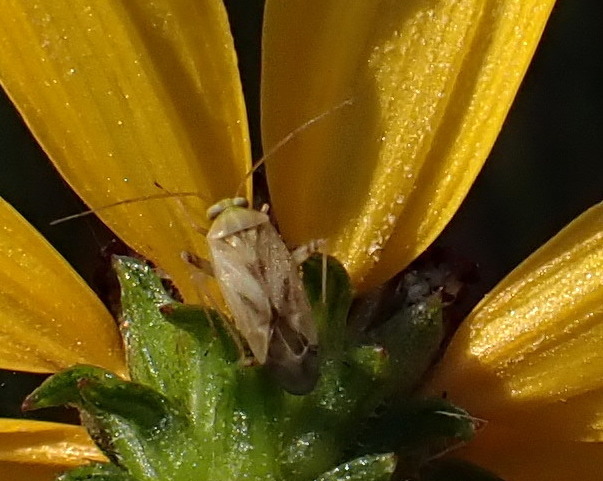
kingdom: Animalia
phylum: Arthropoda
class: Insecta
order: Hemiptera
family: Miridae
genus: Taylorilygus
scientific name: Taylorilygus apicalis
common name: Plant bug
